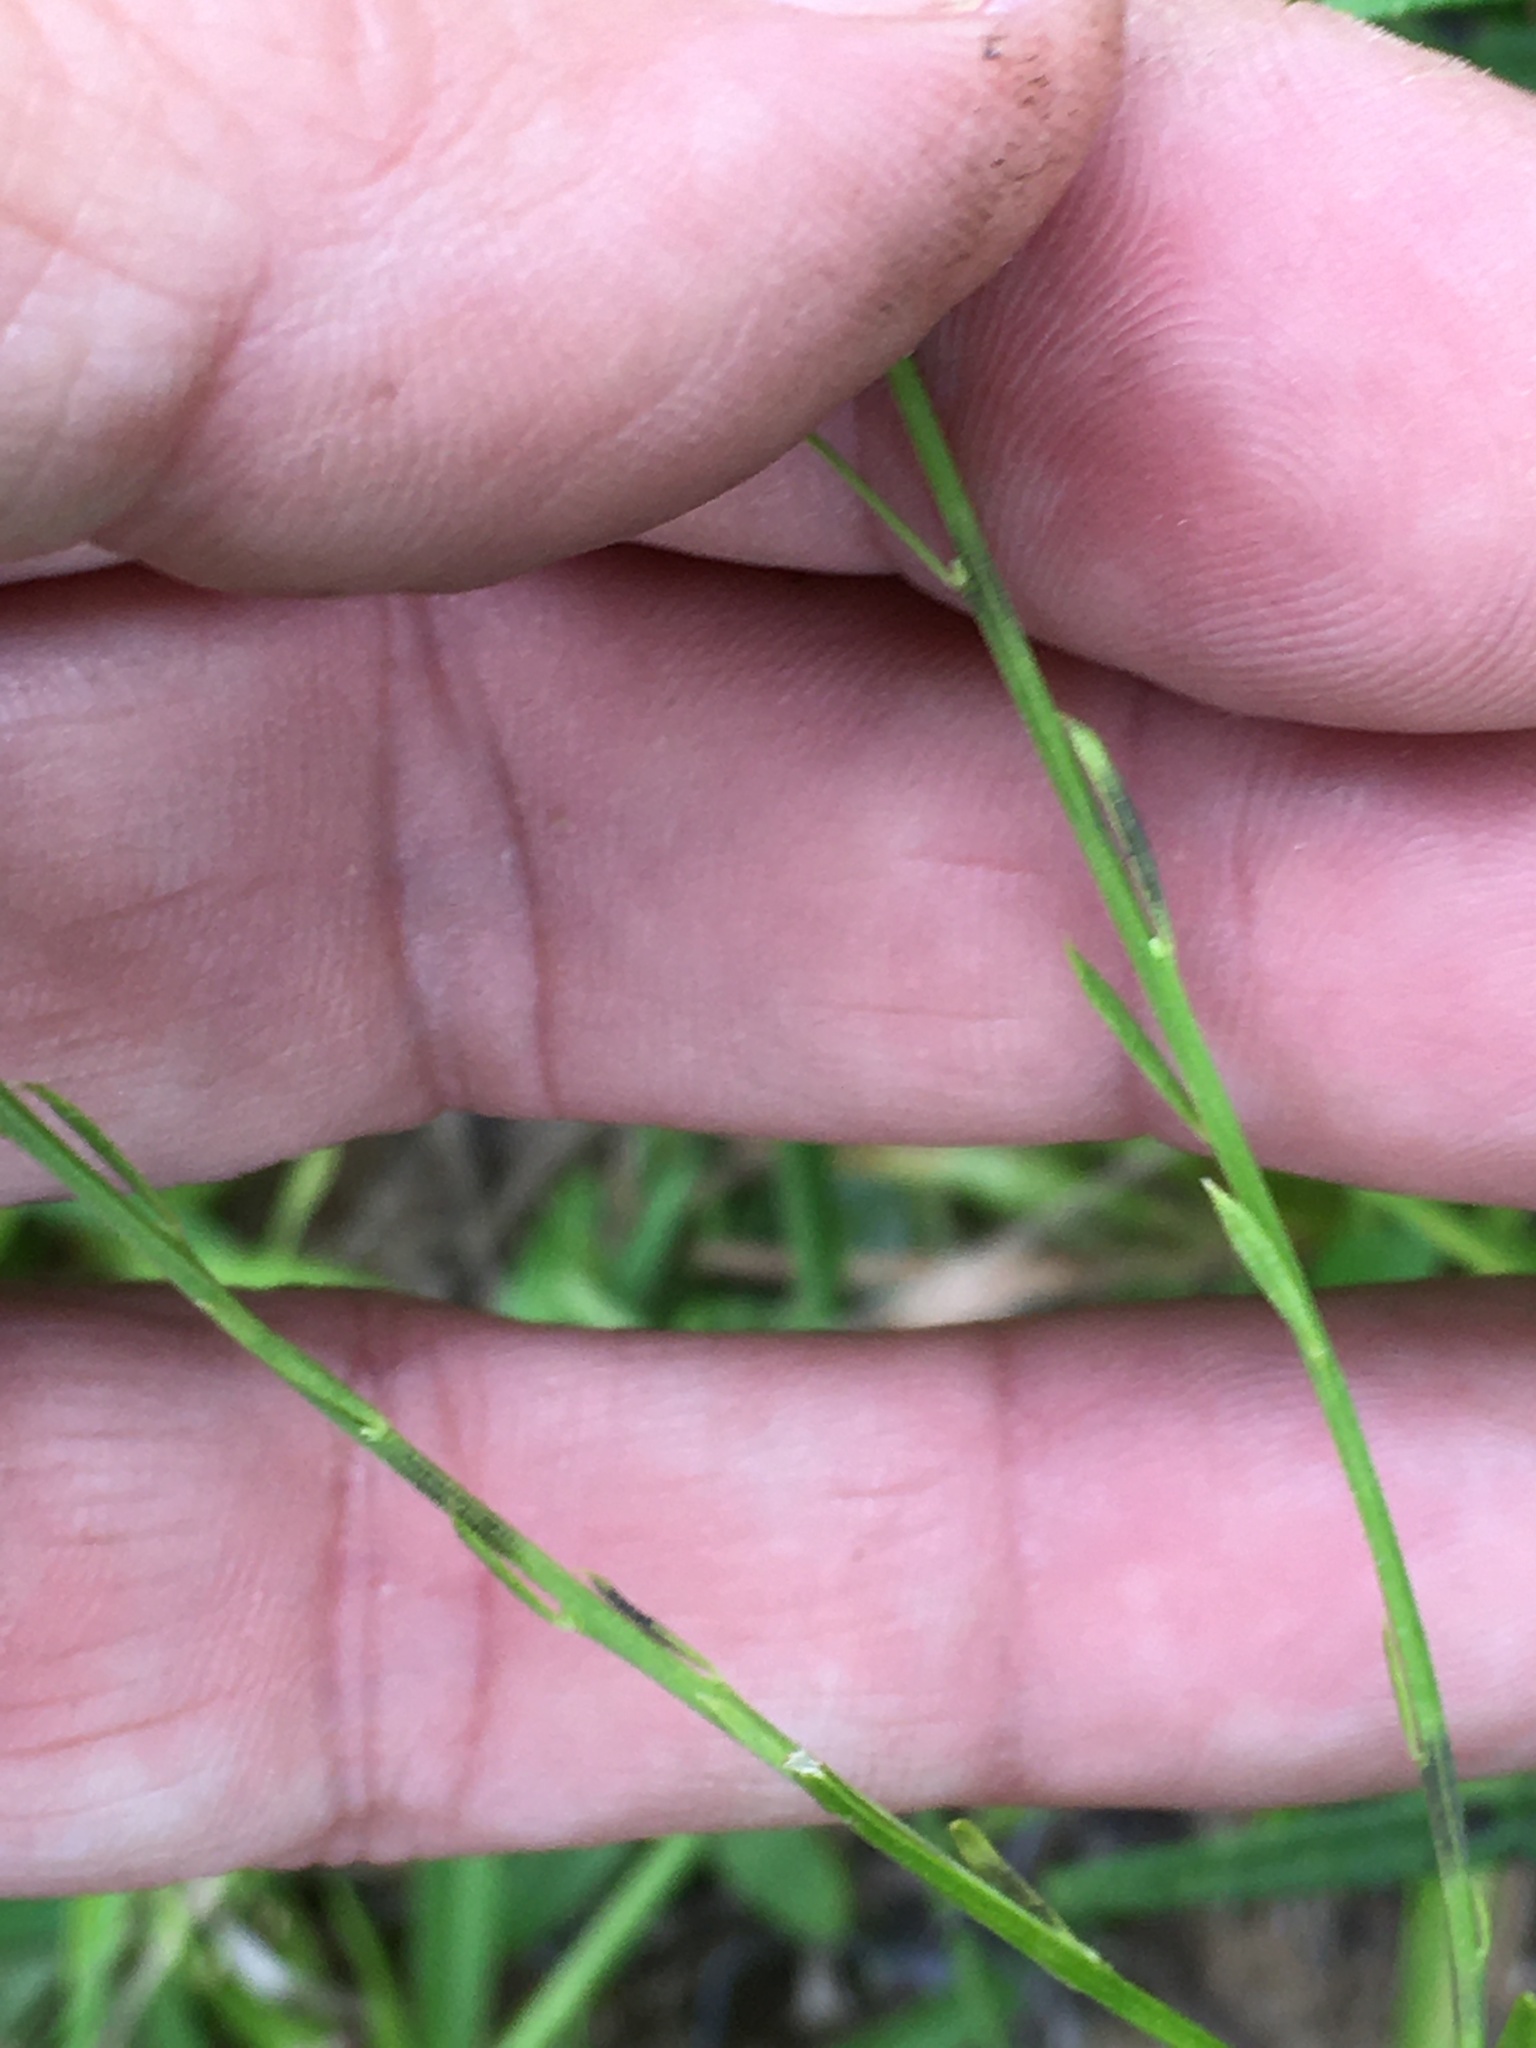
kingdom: Plantae
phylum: Tracheophyta
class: Magnoliopsida
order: Fabales
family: Polygalaceae
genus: Polygala
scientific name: Polygala curtissii
